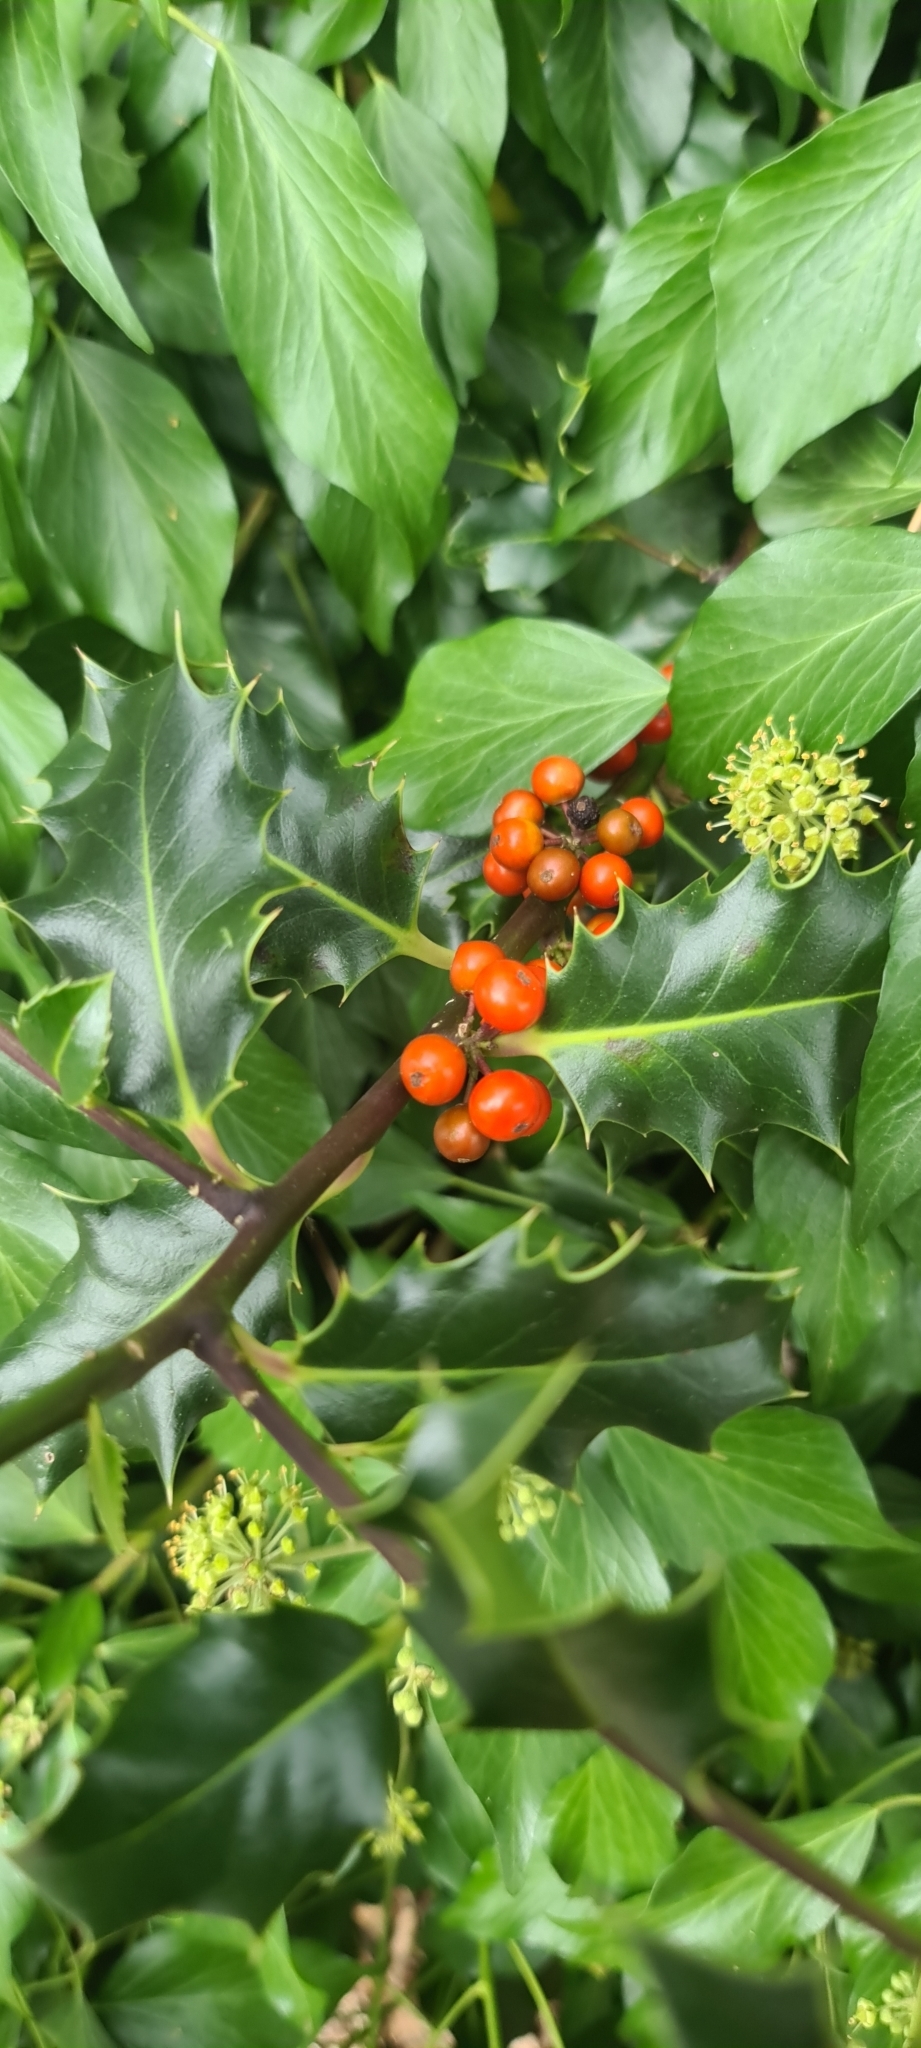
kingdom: Plantae
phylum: Tracheophyta
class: Magnoliopsida
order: Aquifoliales
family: Aquifoliaceae
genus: Ilex
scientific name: Ilex aquifolium
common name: English holly
